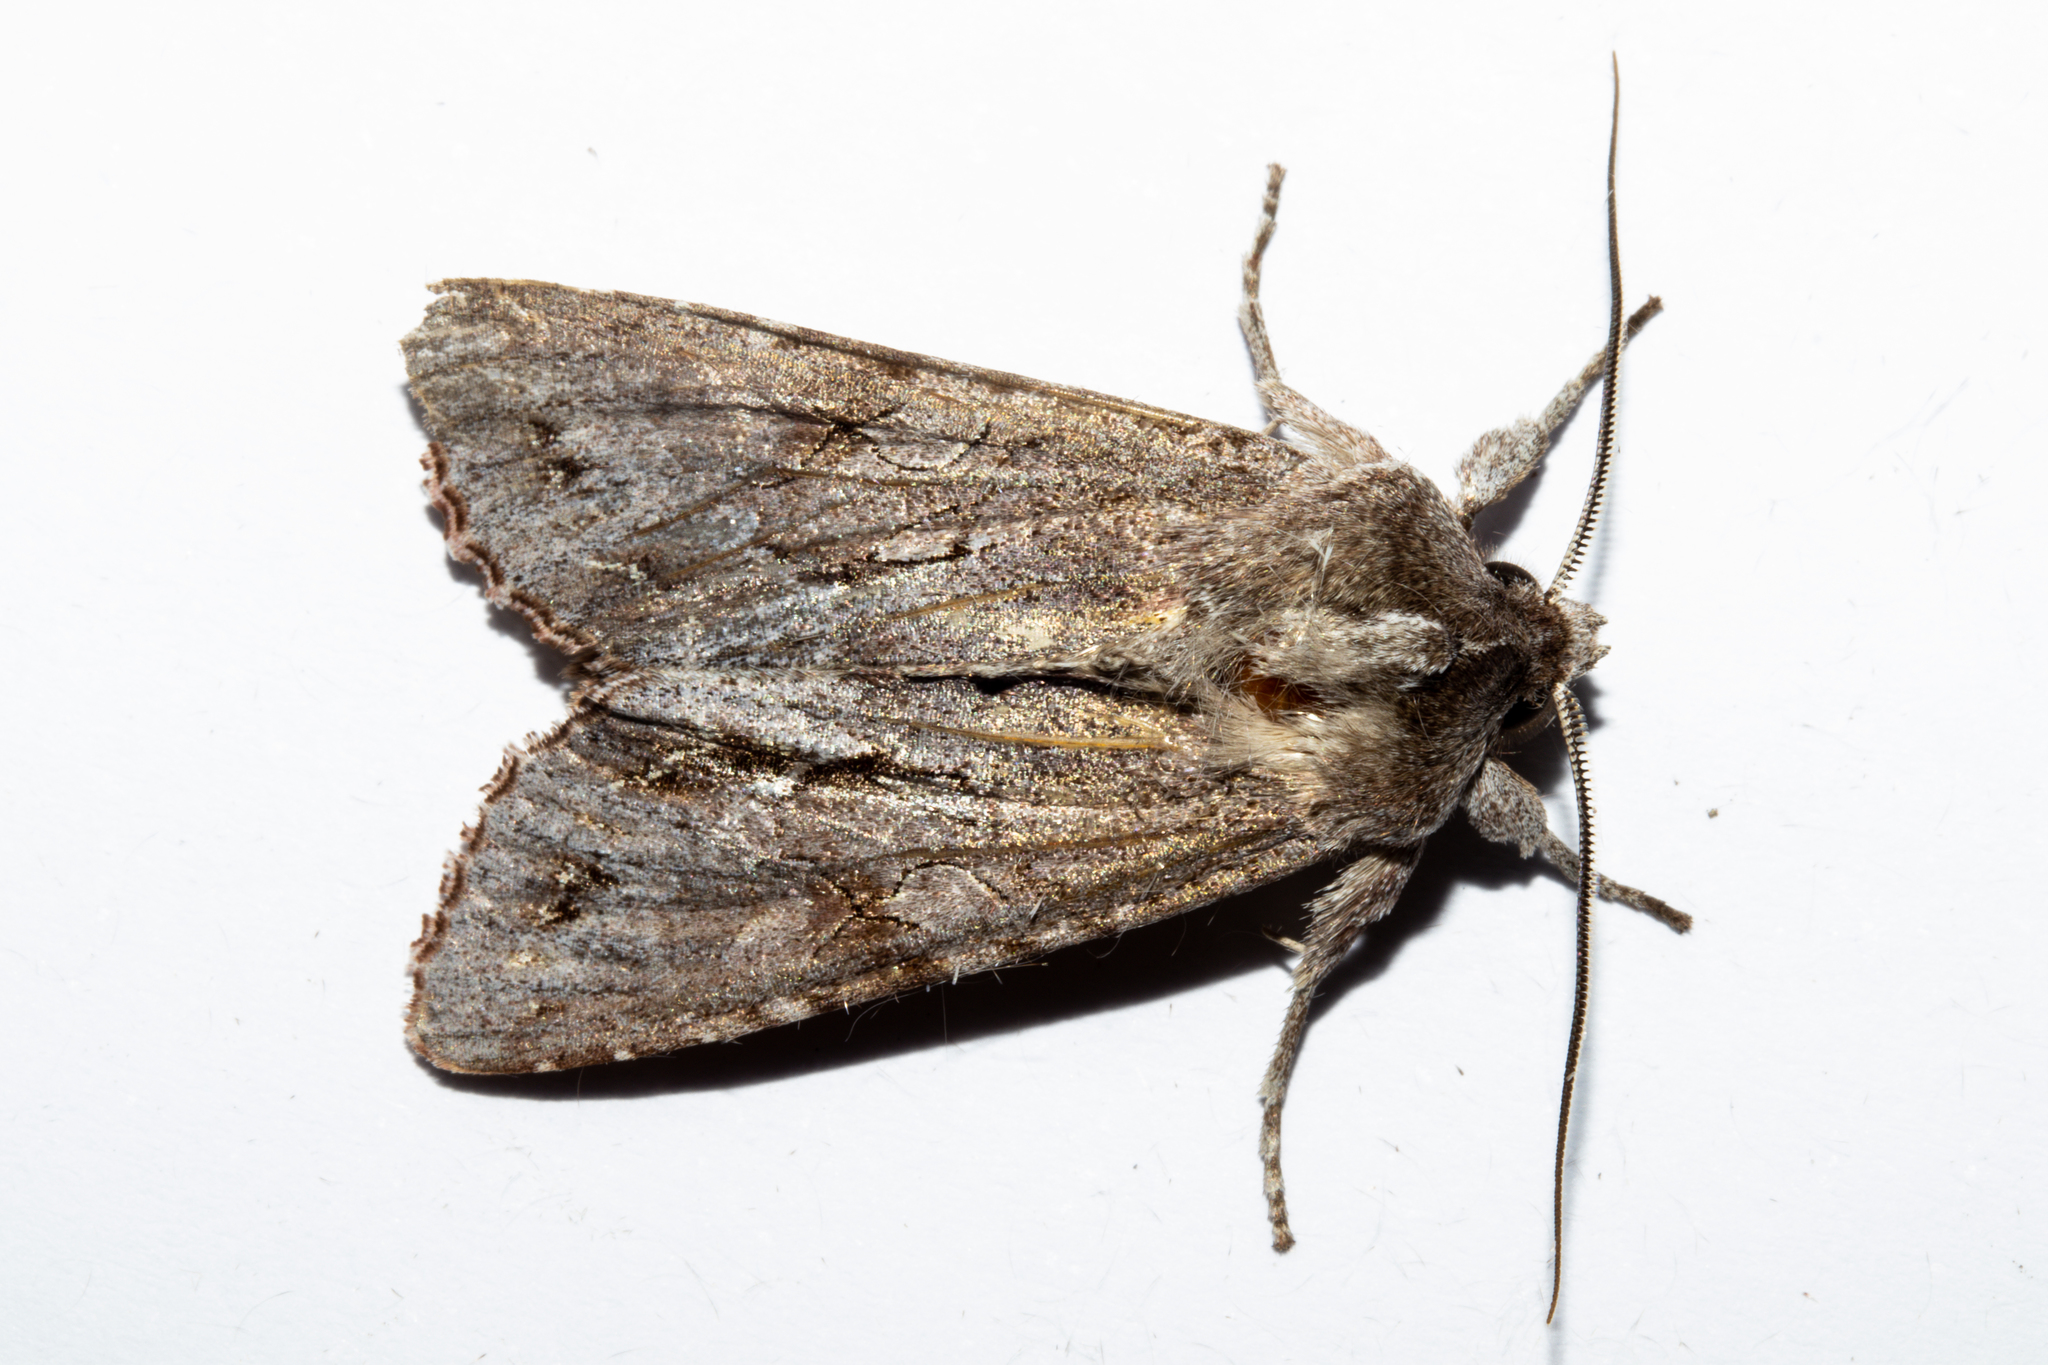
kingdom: Animalia
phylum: Arthropoda
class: Insecta
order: Lepidoptera
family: Noctuidae
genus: Ichneutica
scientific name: Ichneutica
